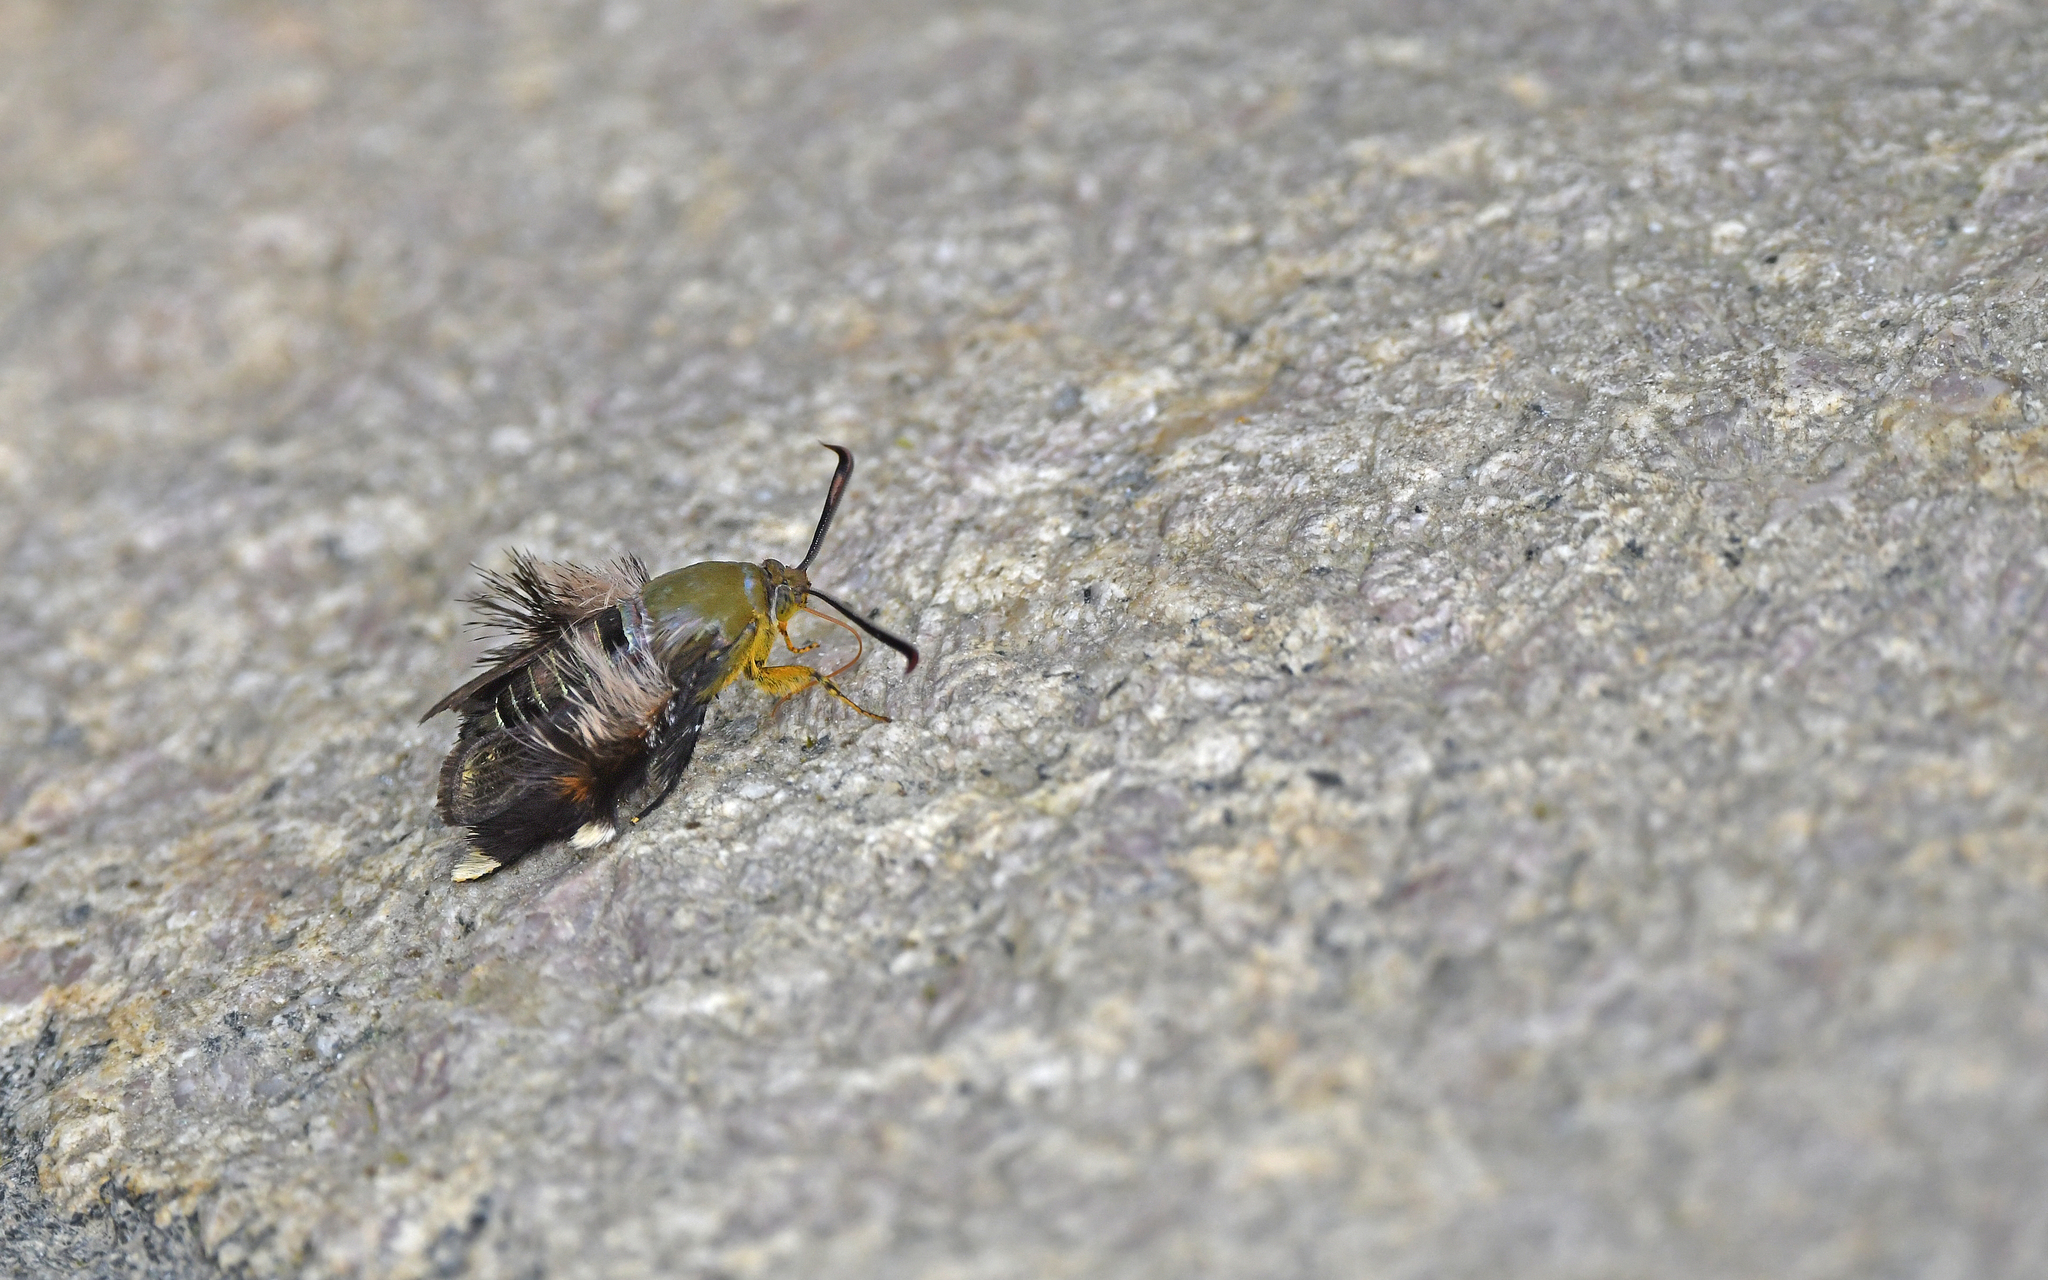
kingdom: Animalia
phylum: Arthropoda
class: Insecta
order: Lepidoptera
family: Sesiidae
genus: Melittia
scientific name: Melittia xanthopus
